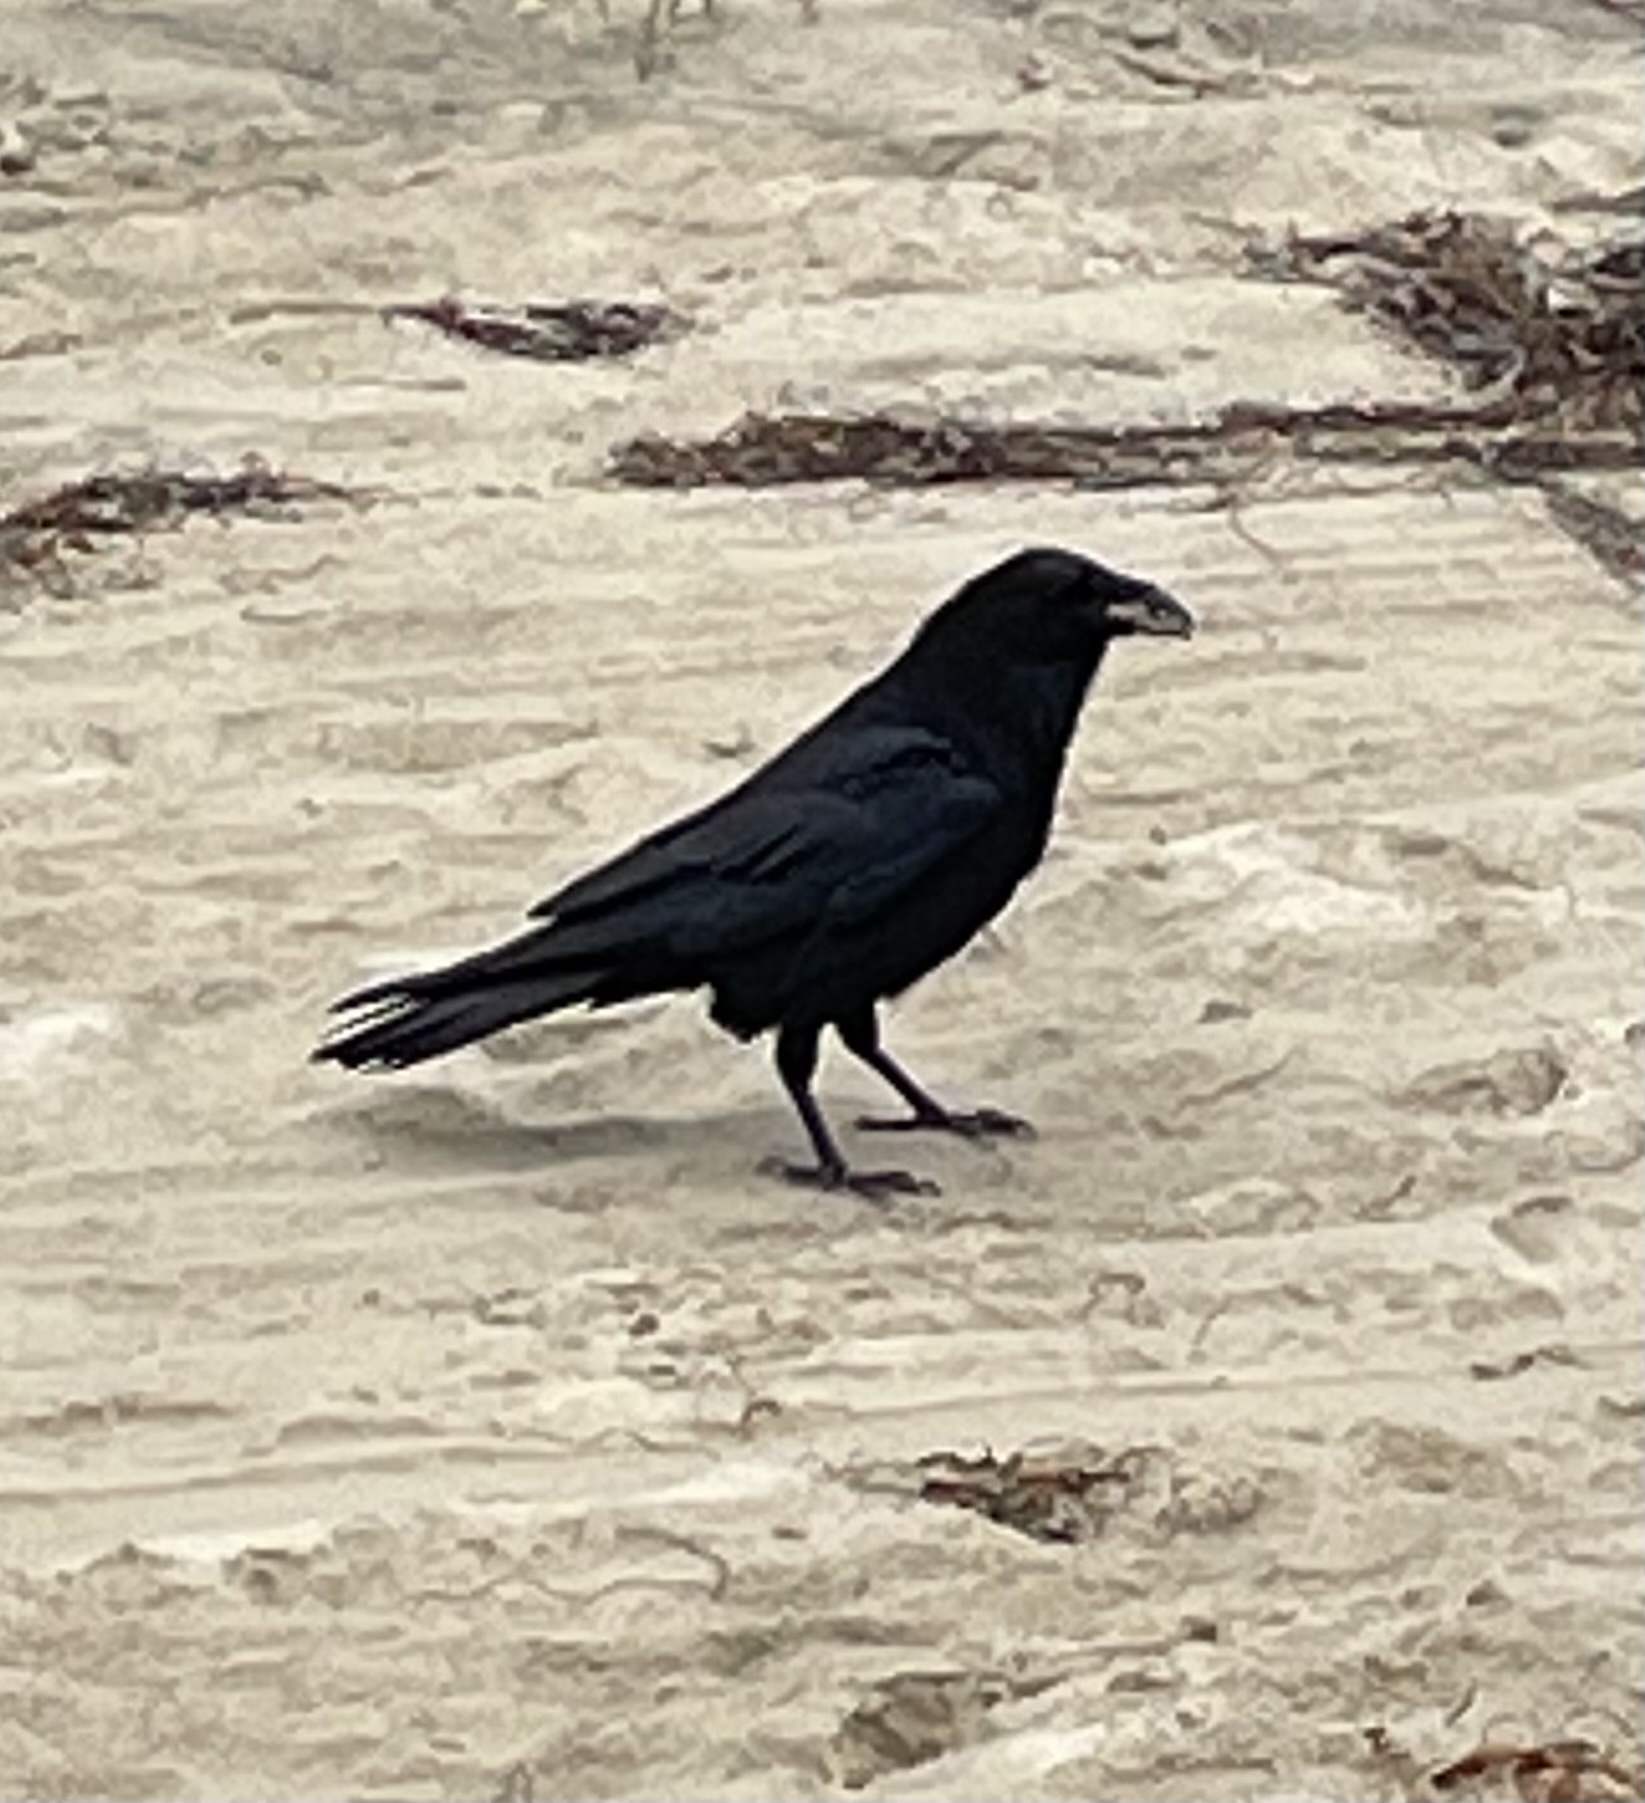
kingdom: Animalia
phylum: Chordata
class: Aves
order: Passeriformes
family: Corvidae
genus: Corvus
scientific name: Corvus corax
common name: Common raven
